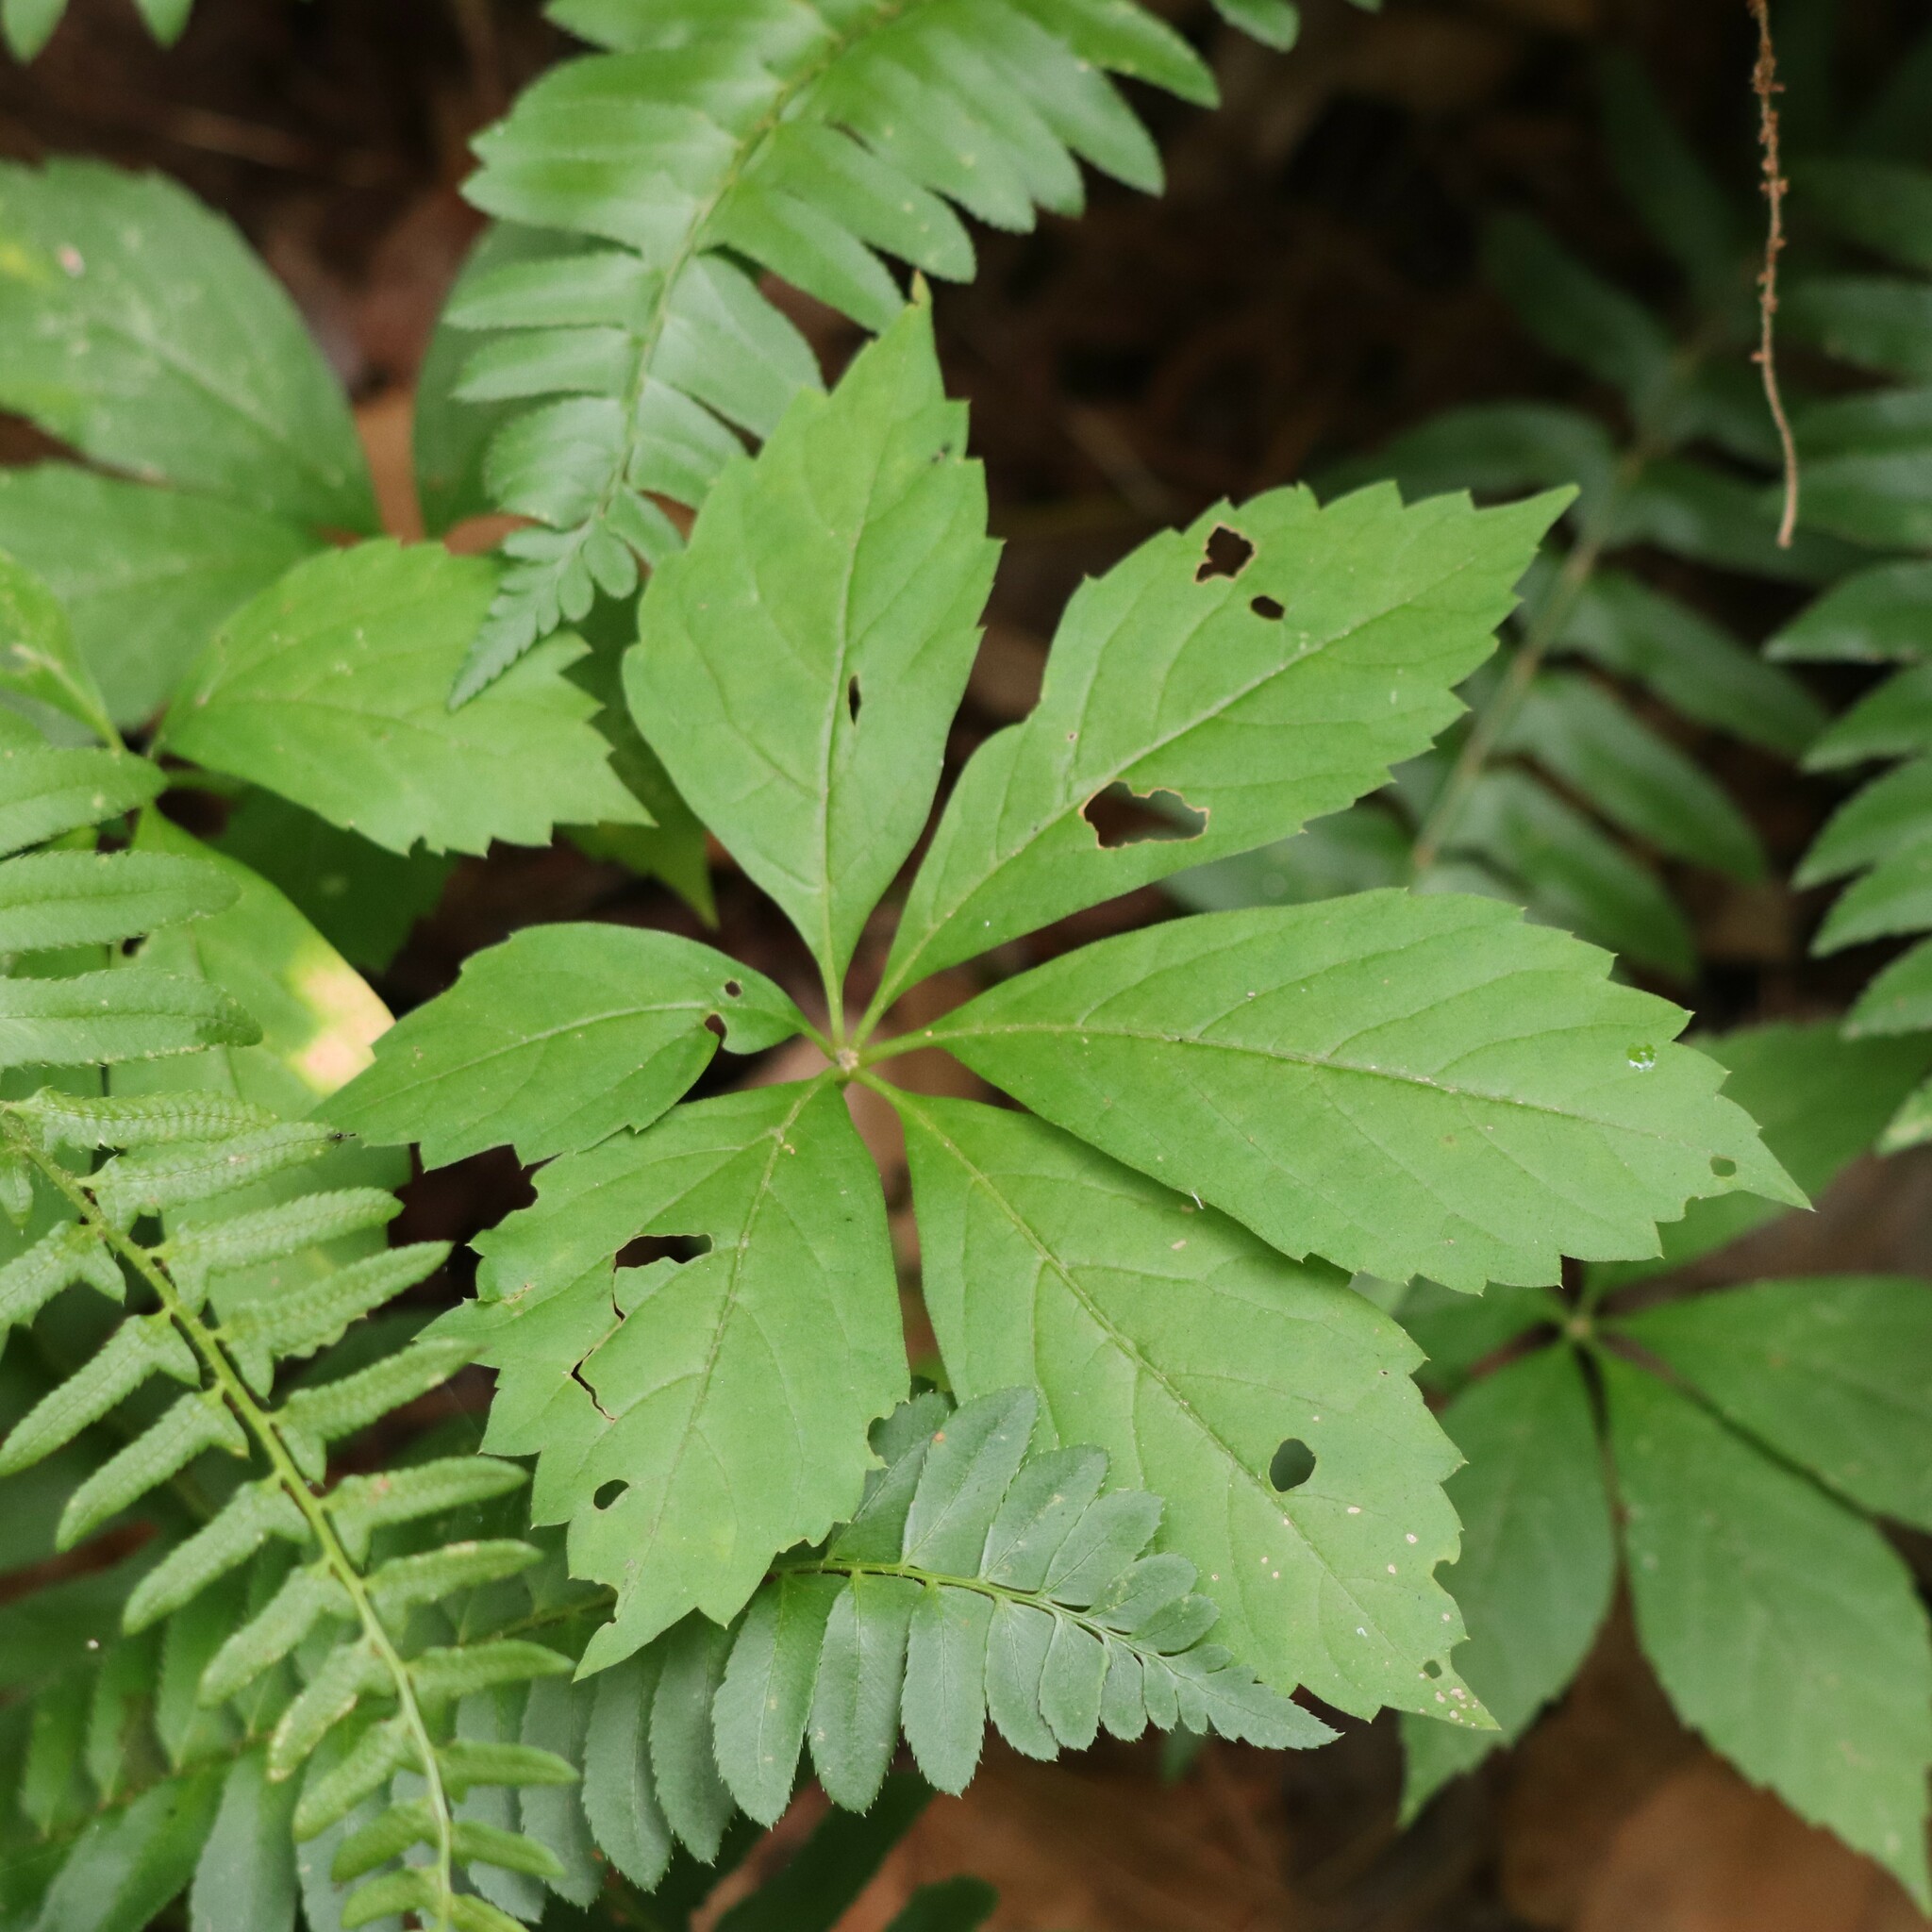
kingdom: Plantae
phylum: Tracheophyta
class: Magnoliopsida
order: Vitales
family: Vitaceae
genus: Parthenocissus
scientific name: Parthenocissus quinquefolia
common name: Virginia-creeper
